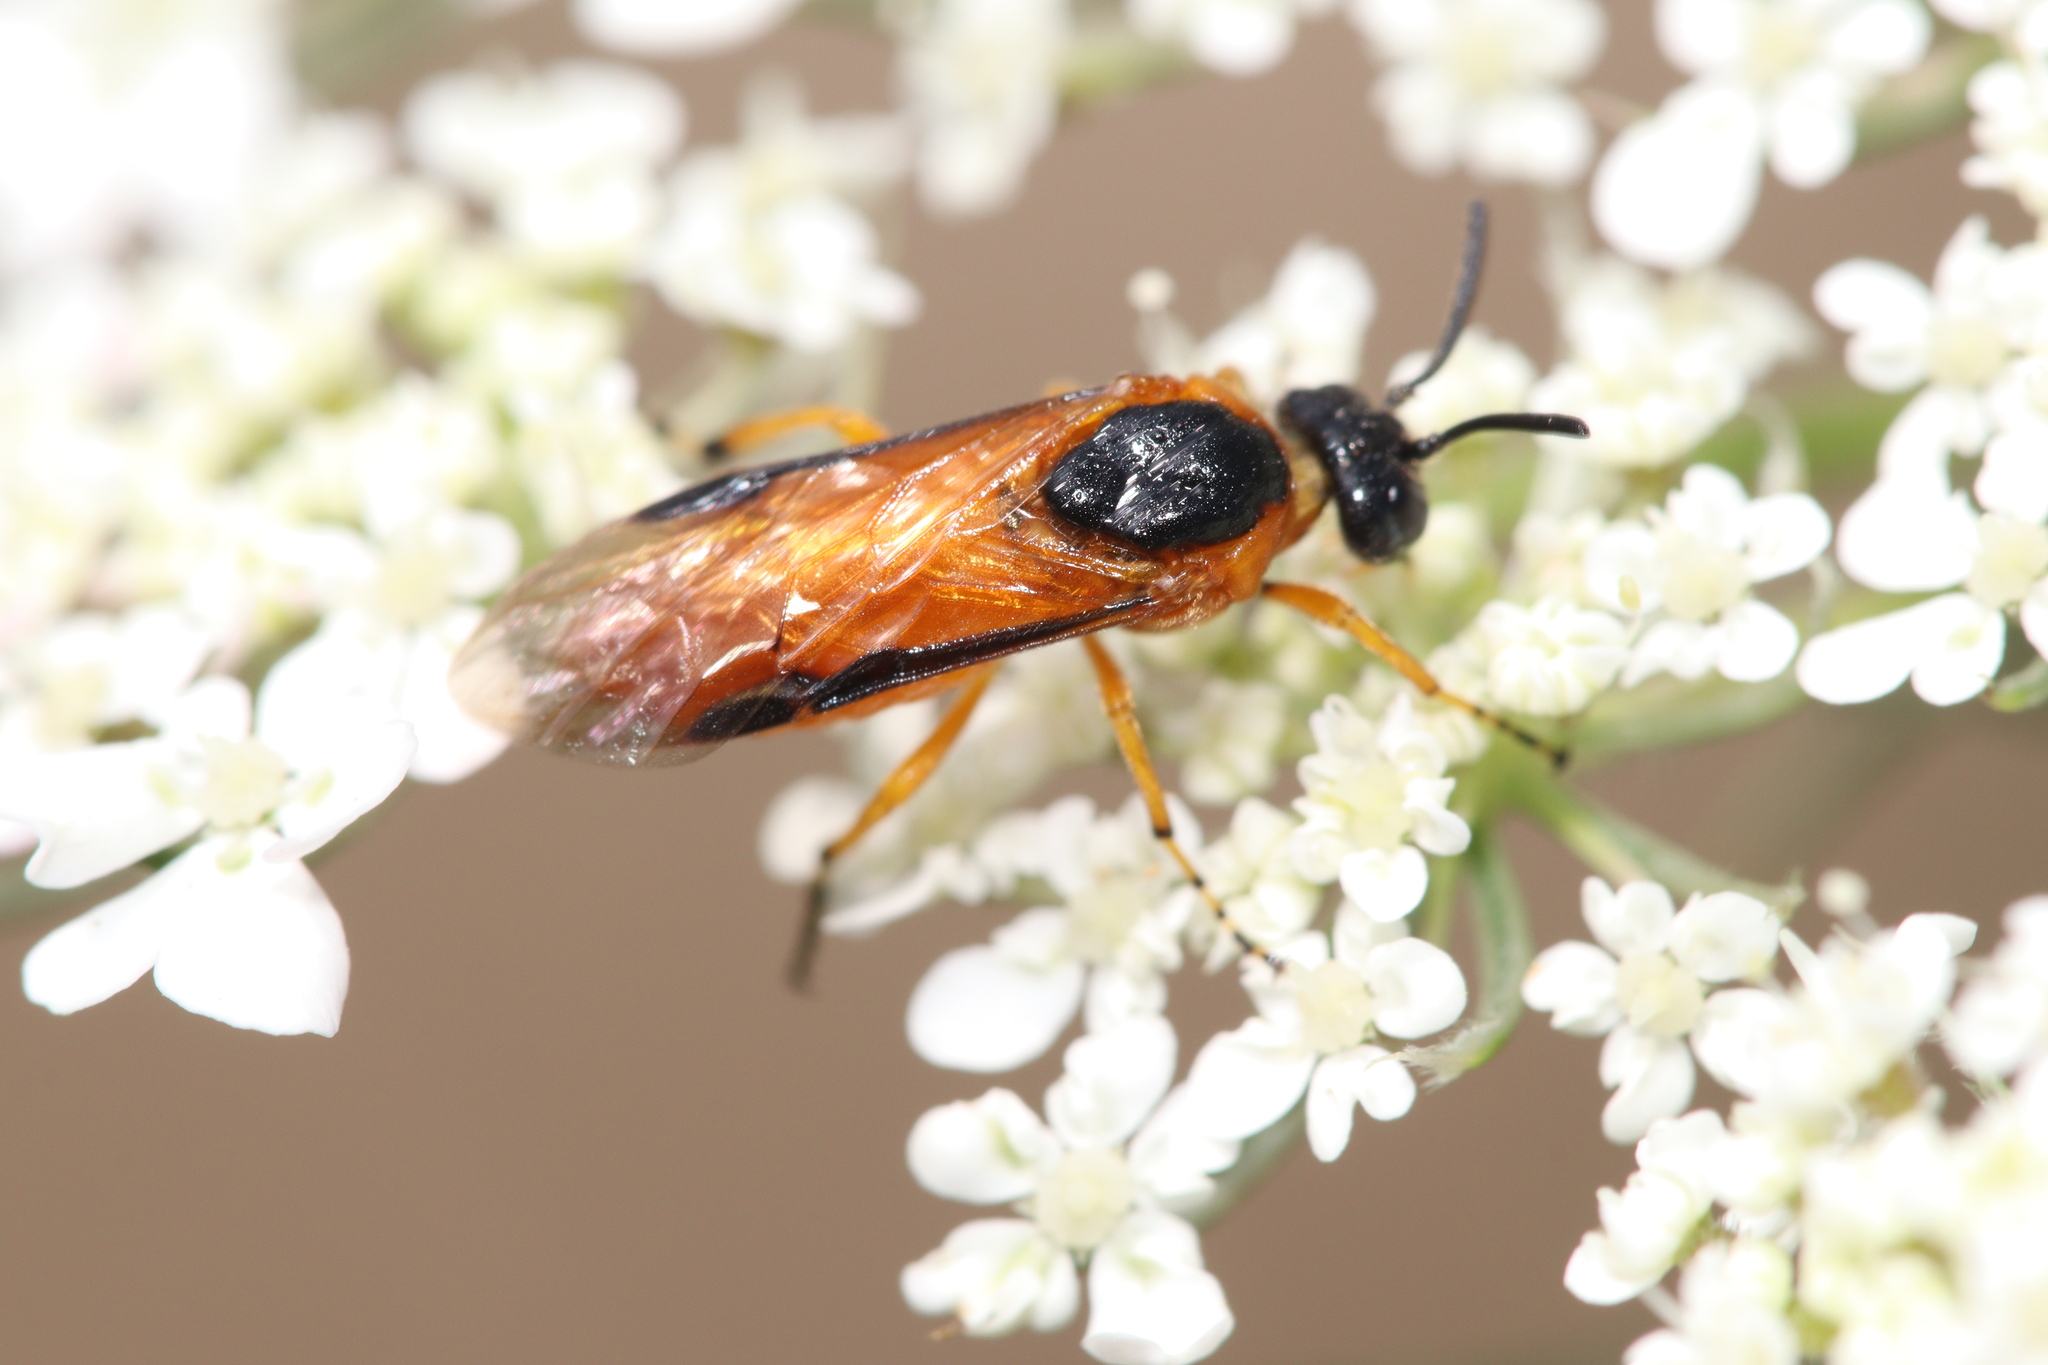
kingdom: Animalia
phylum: Arthropoda
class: Insecta
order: Hymenoptera
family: Argidae
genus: Arge
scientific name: Arge ochropus
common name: Argid sawfly
